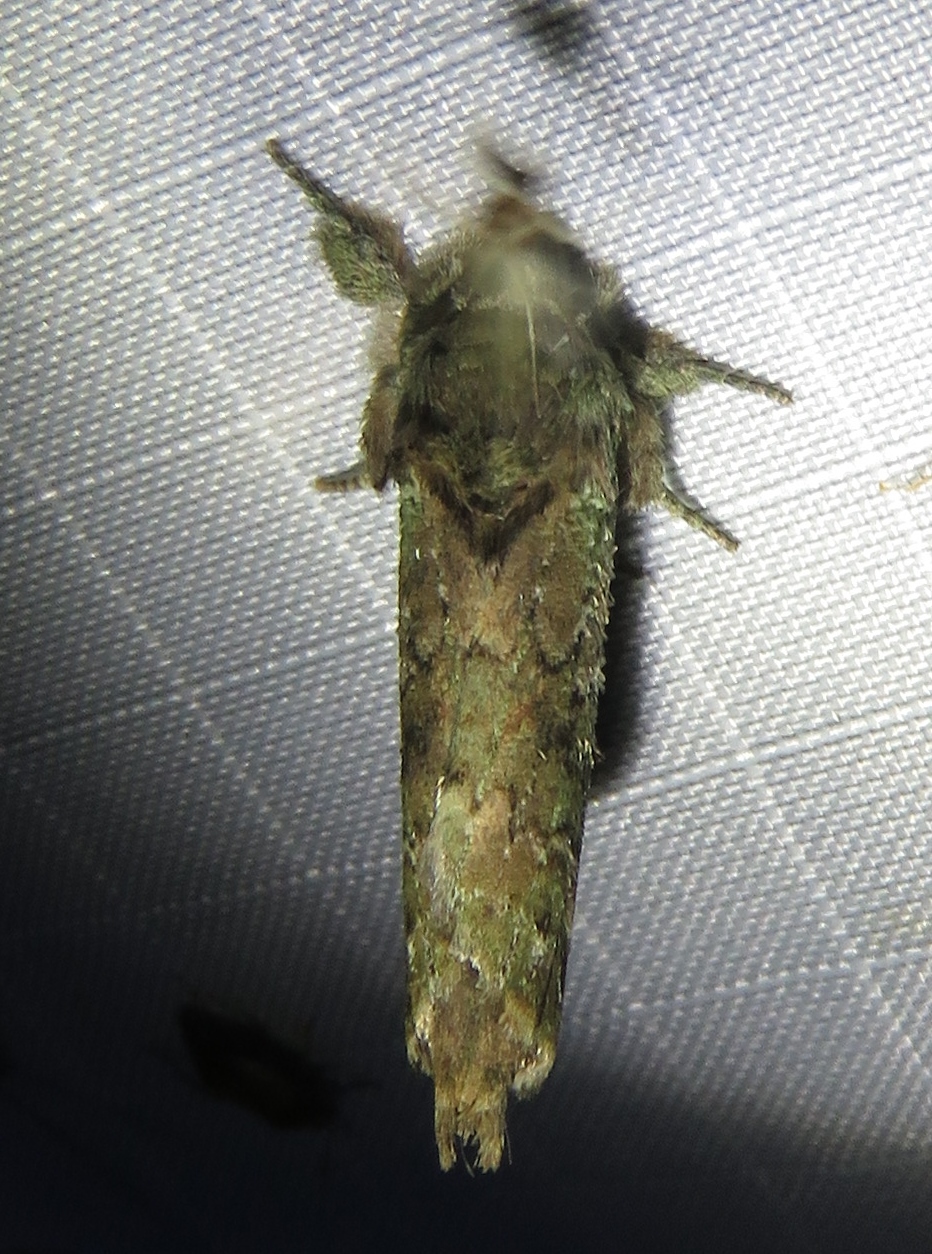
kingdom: Animalia
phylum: Arthropoda
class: Insecta
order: Lepidoptera
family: Notodontidae
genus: Schizura
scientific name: Schizura
